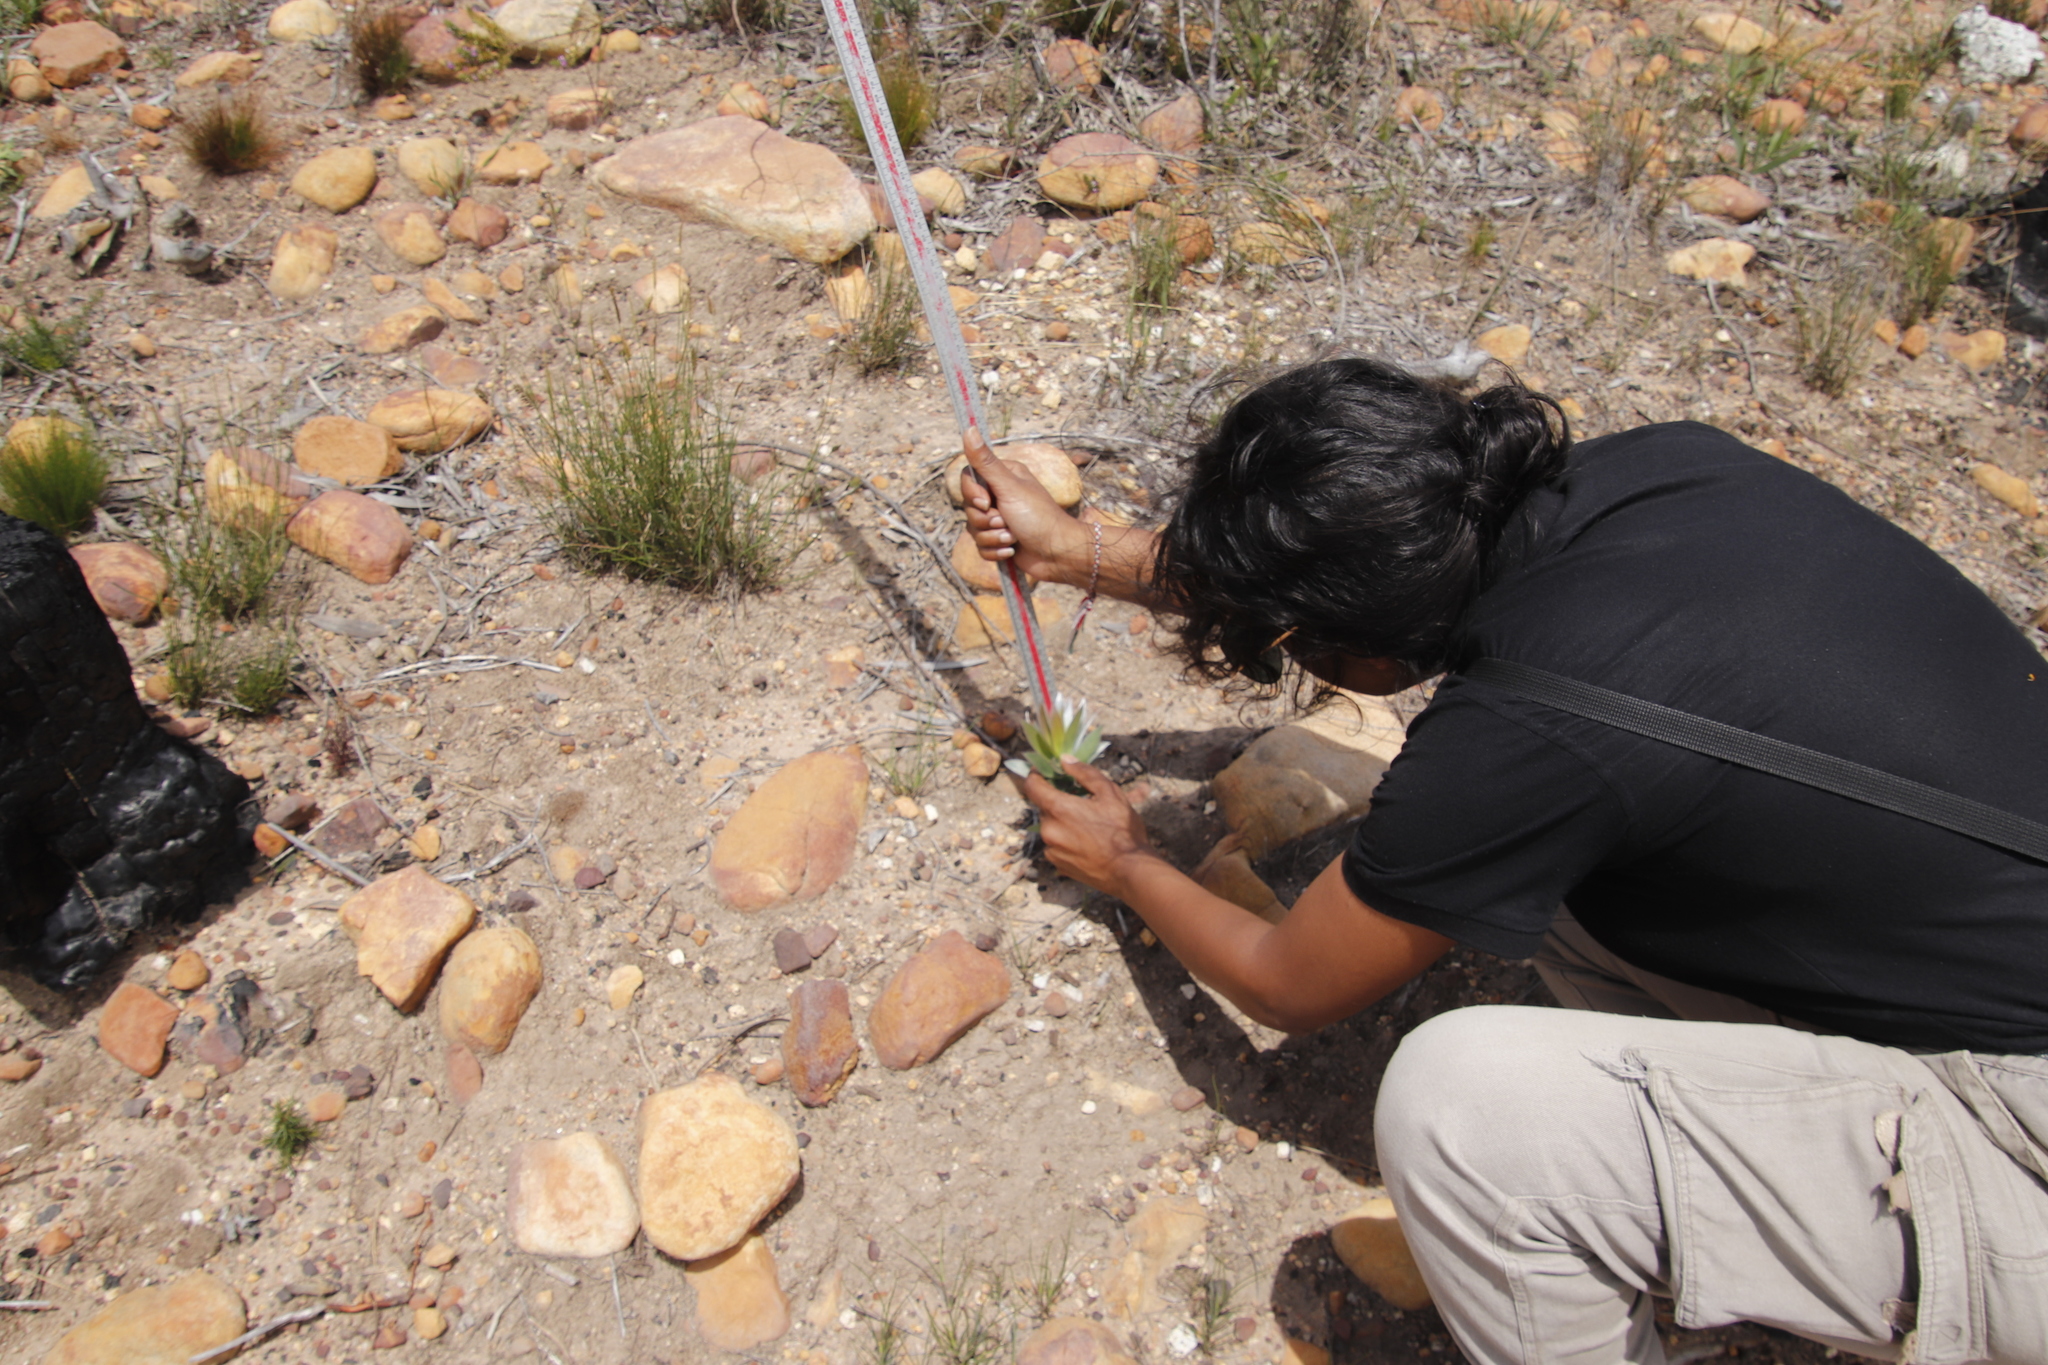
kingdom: Plantae
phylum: Tracheophyta
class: Magnoliopsida
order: Proteales
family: Proteaceae
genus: Leucadendron
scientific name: Leucadendron argenteum
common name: Cape silver tree
